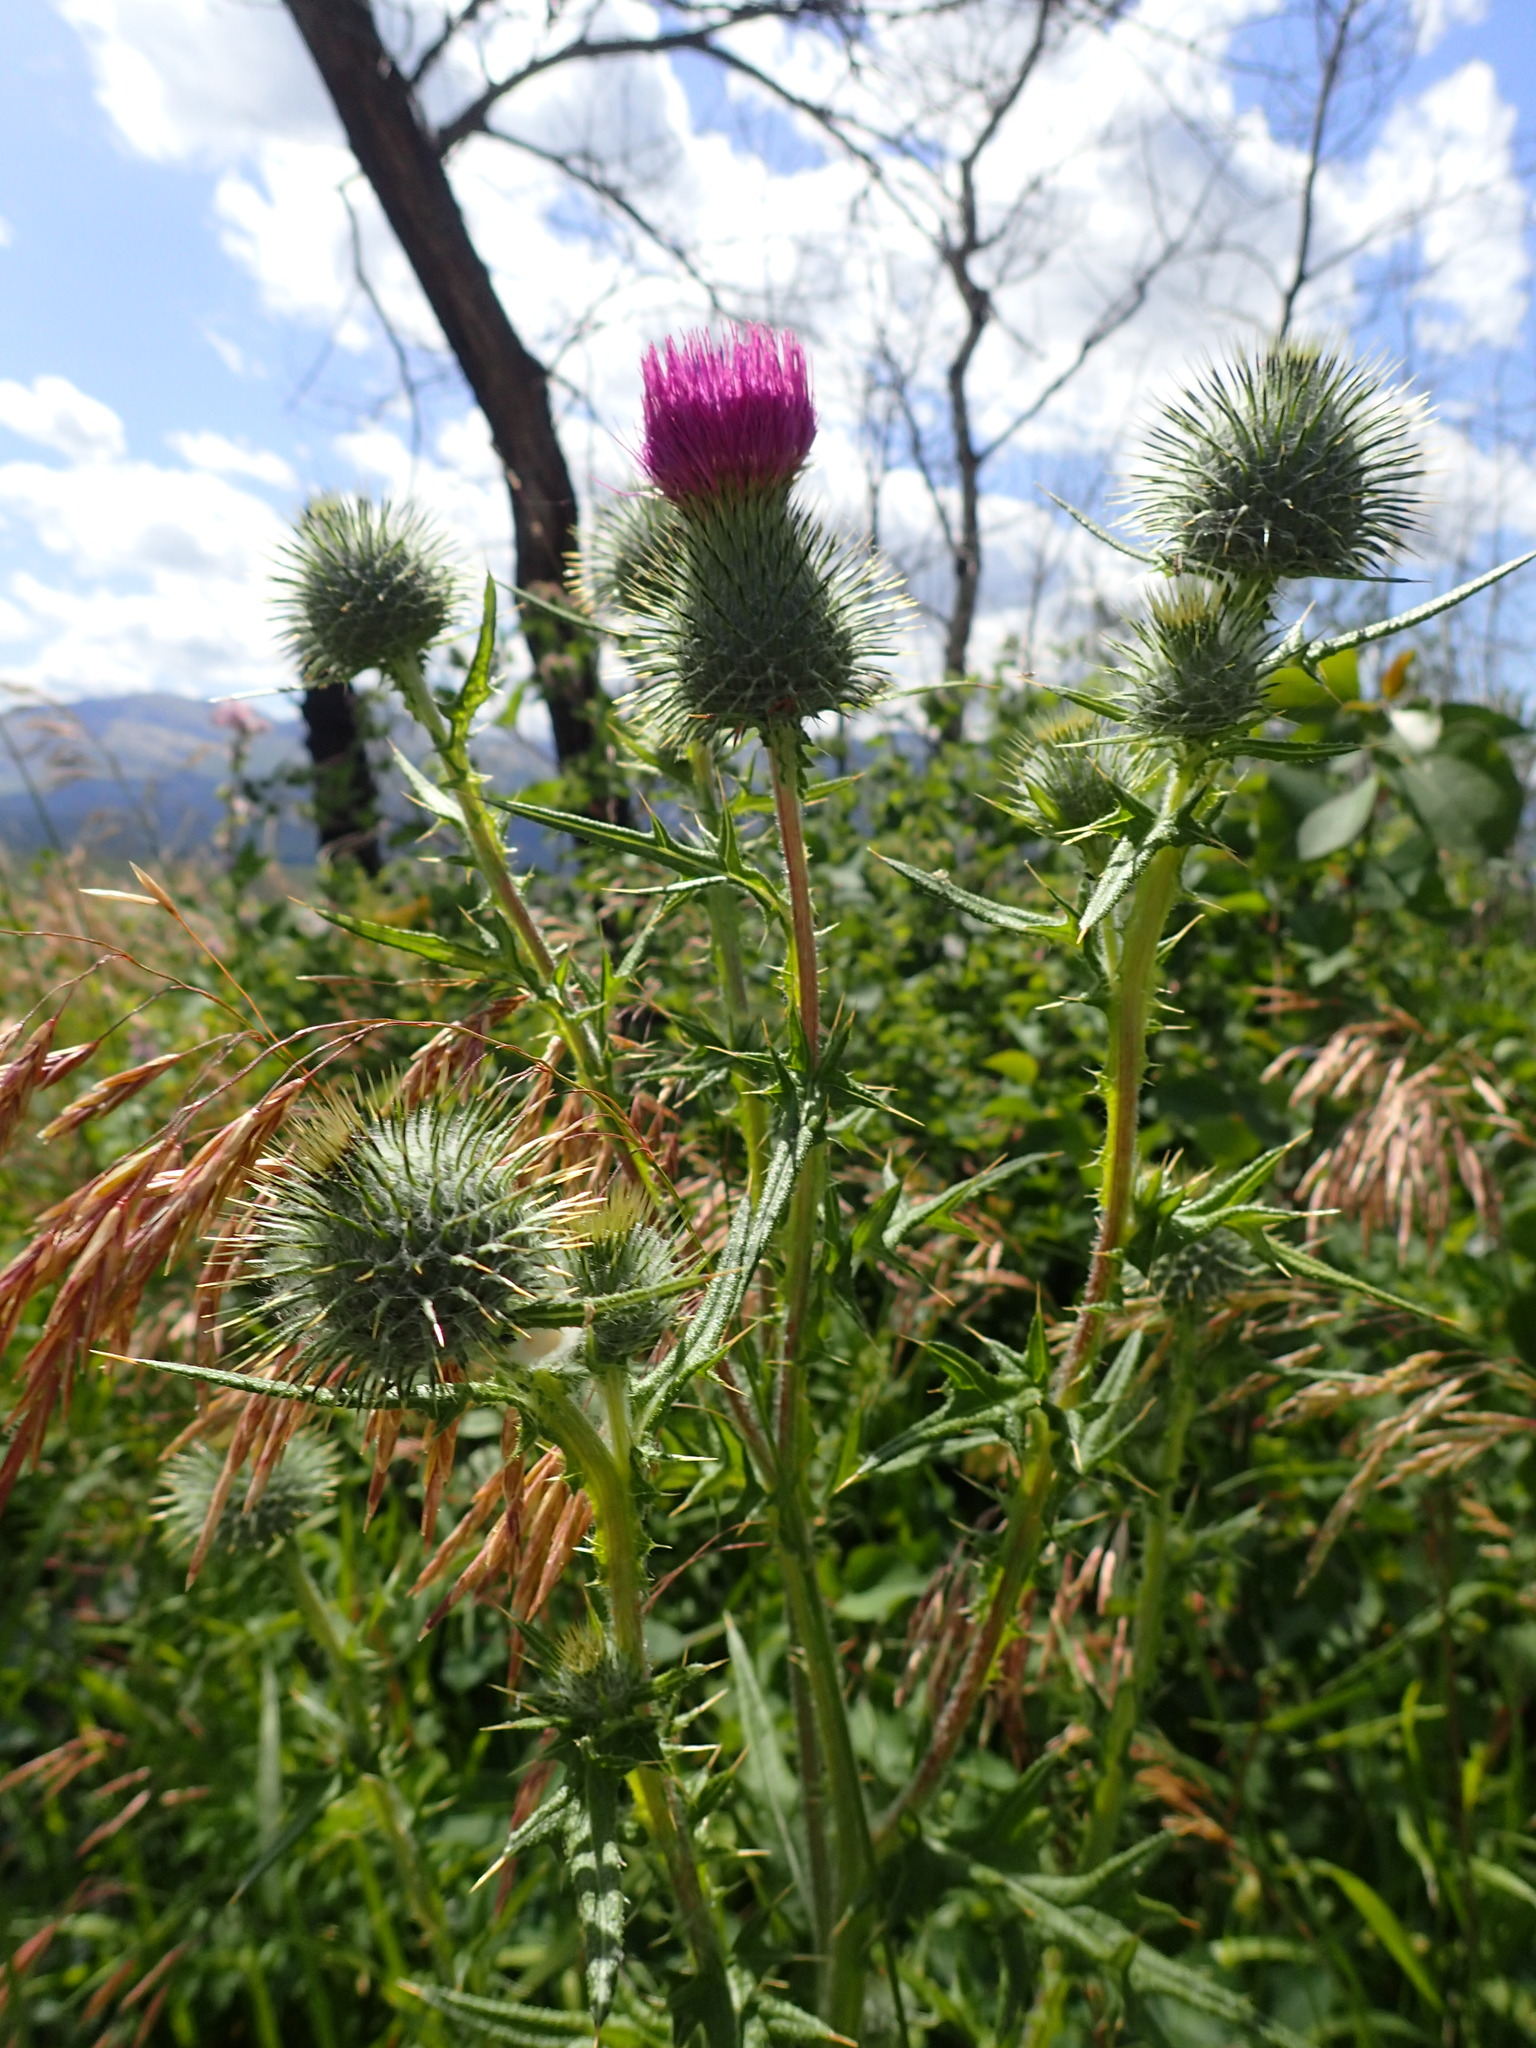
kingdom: Plantae
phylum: Tracheophyta
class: Magnoliopsida
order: Asterales
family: Asteraceae
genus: Cirsium
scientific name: Cirsium vulgare
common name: Bull thistle
